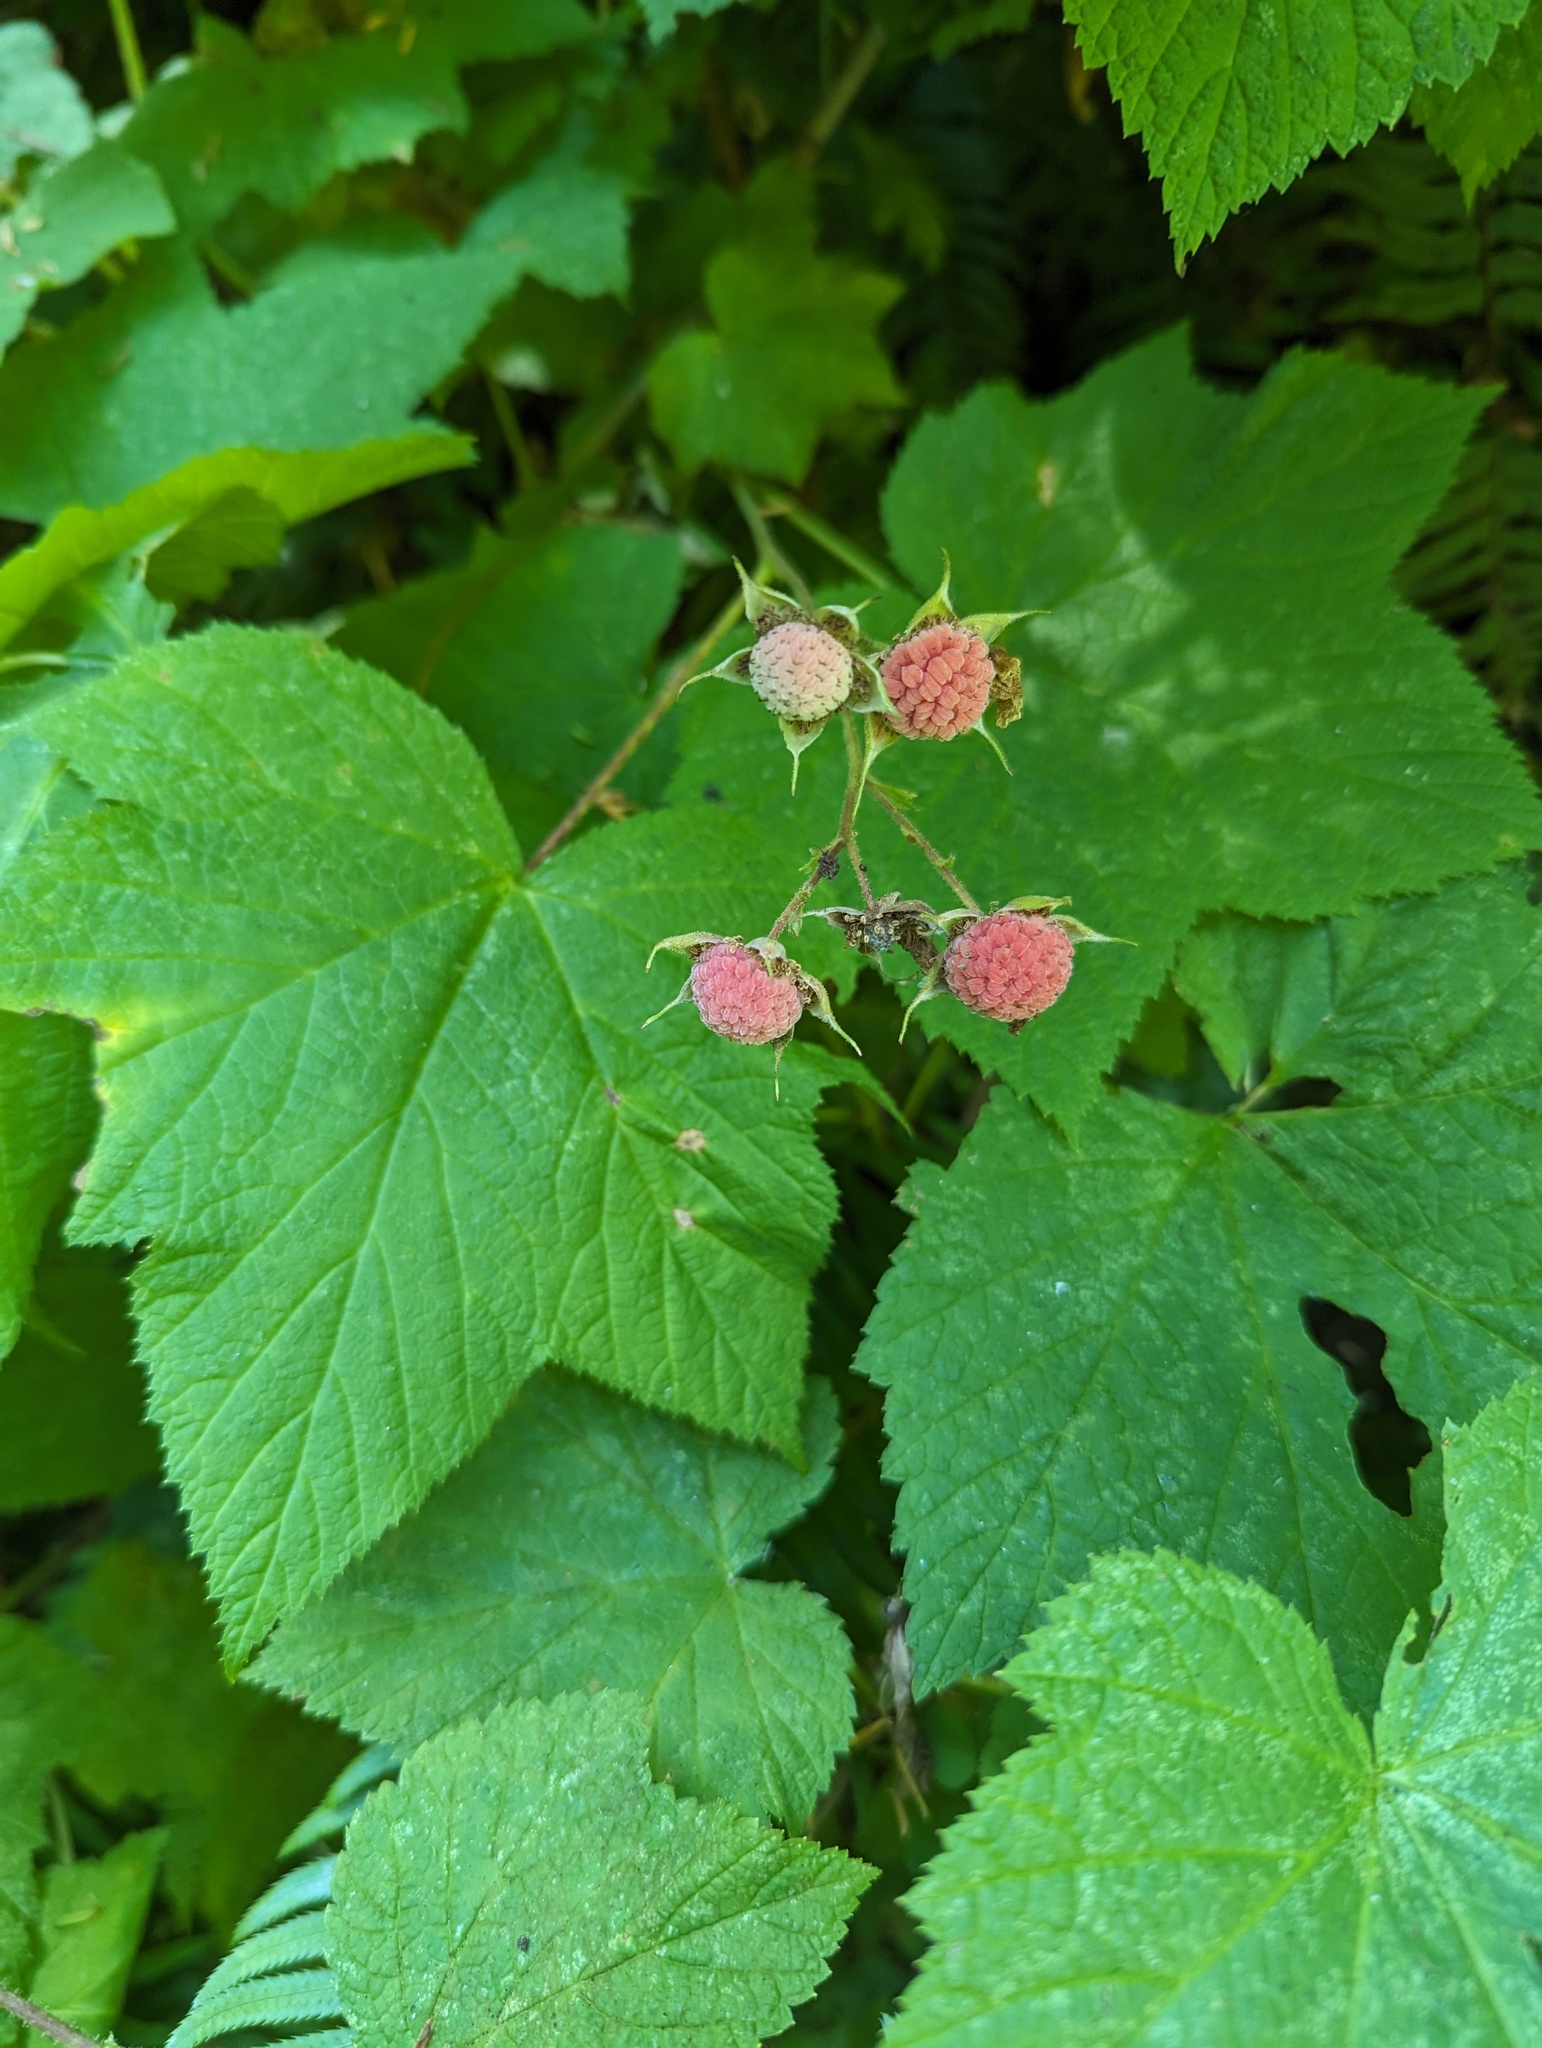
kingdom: Plantae
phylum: Tracheophyta
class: Magnoliopsida
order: Rosales
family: Rosaceae
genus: Rubus
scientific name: Rubus parviflorus
